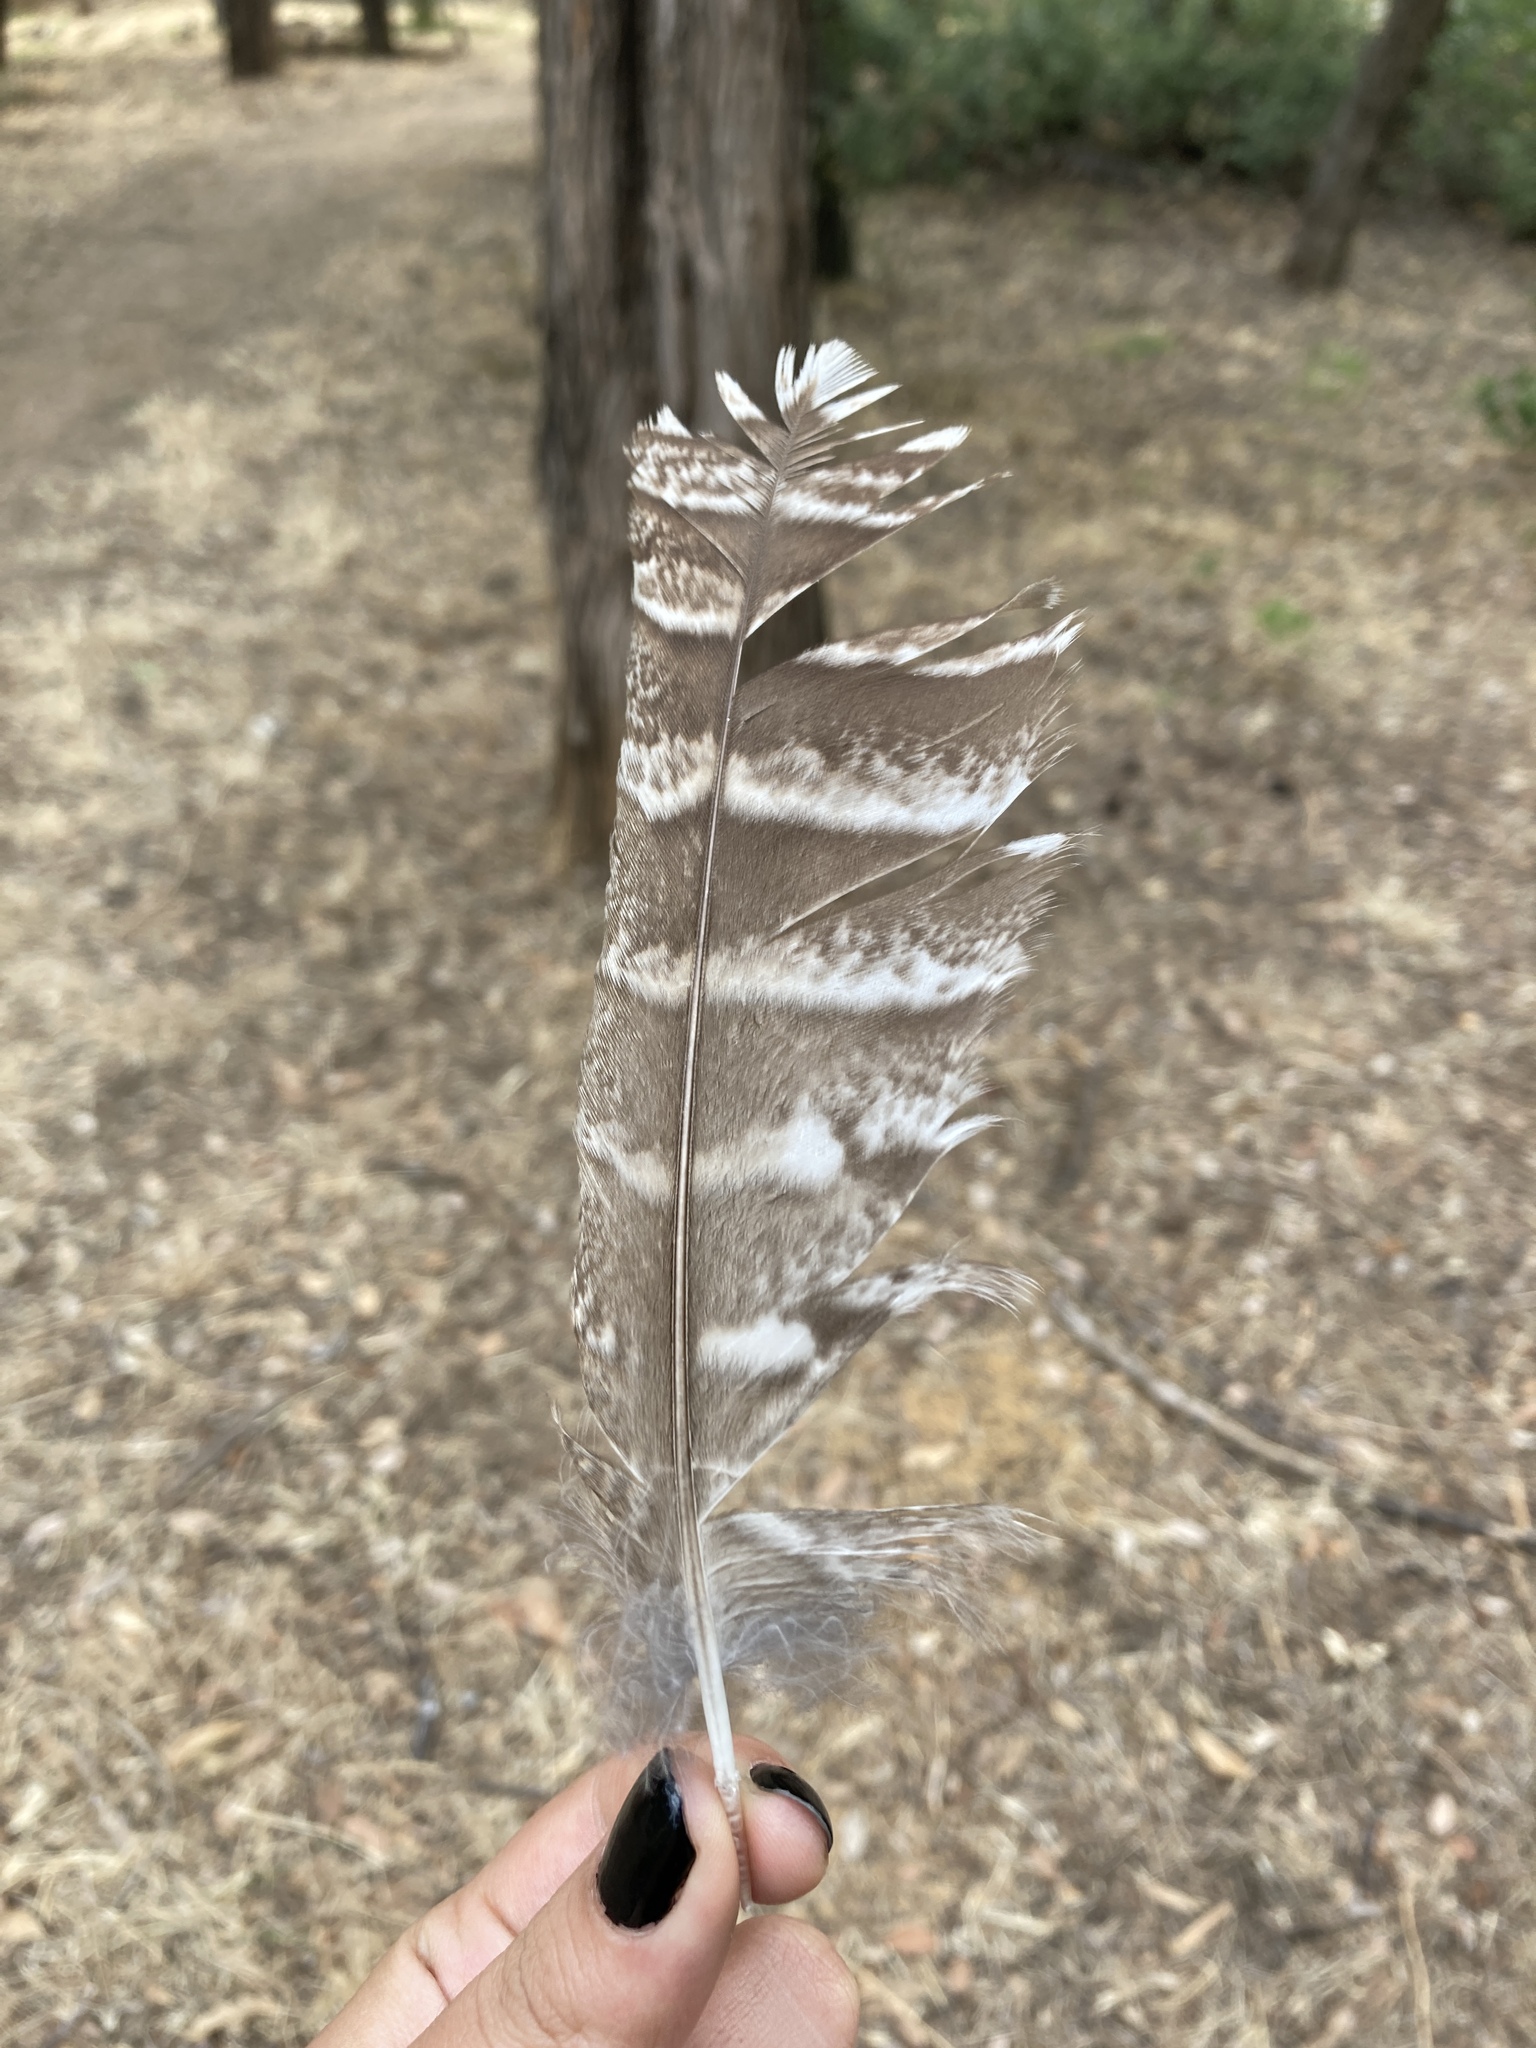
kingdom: Animalia
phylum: Chordata
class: Aves
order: Strigiformes
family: Strigidae
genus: Strix
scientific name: Strix aluco
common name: Tawny owl
